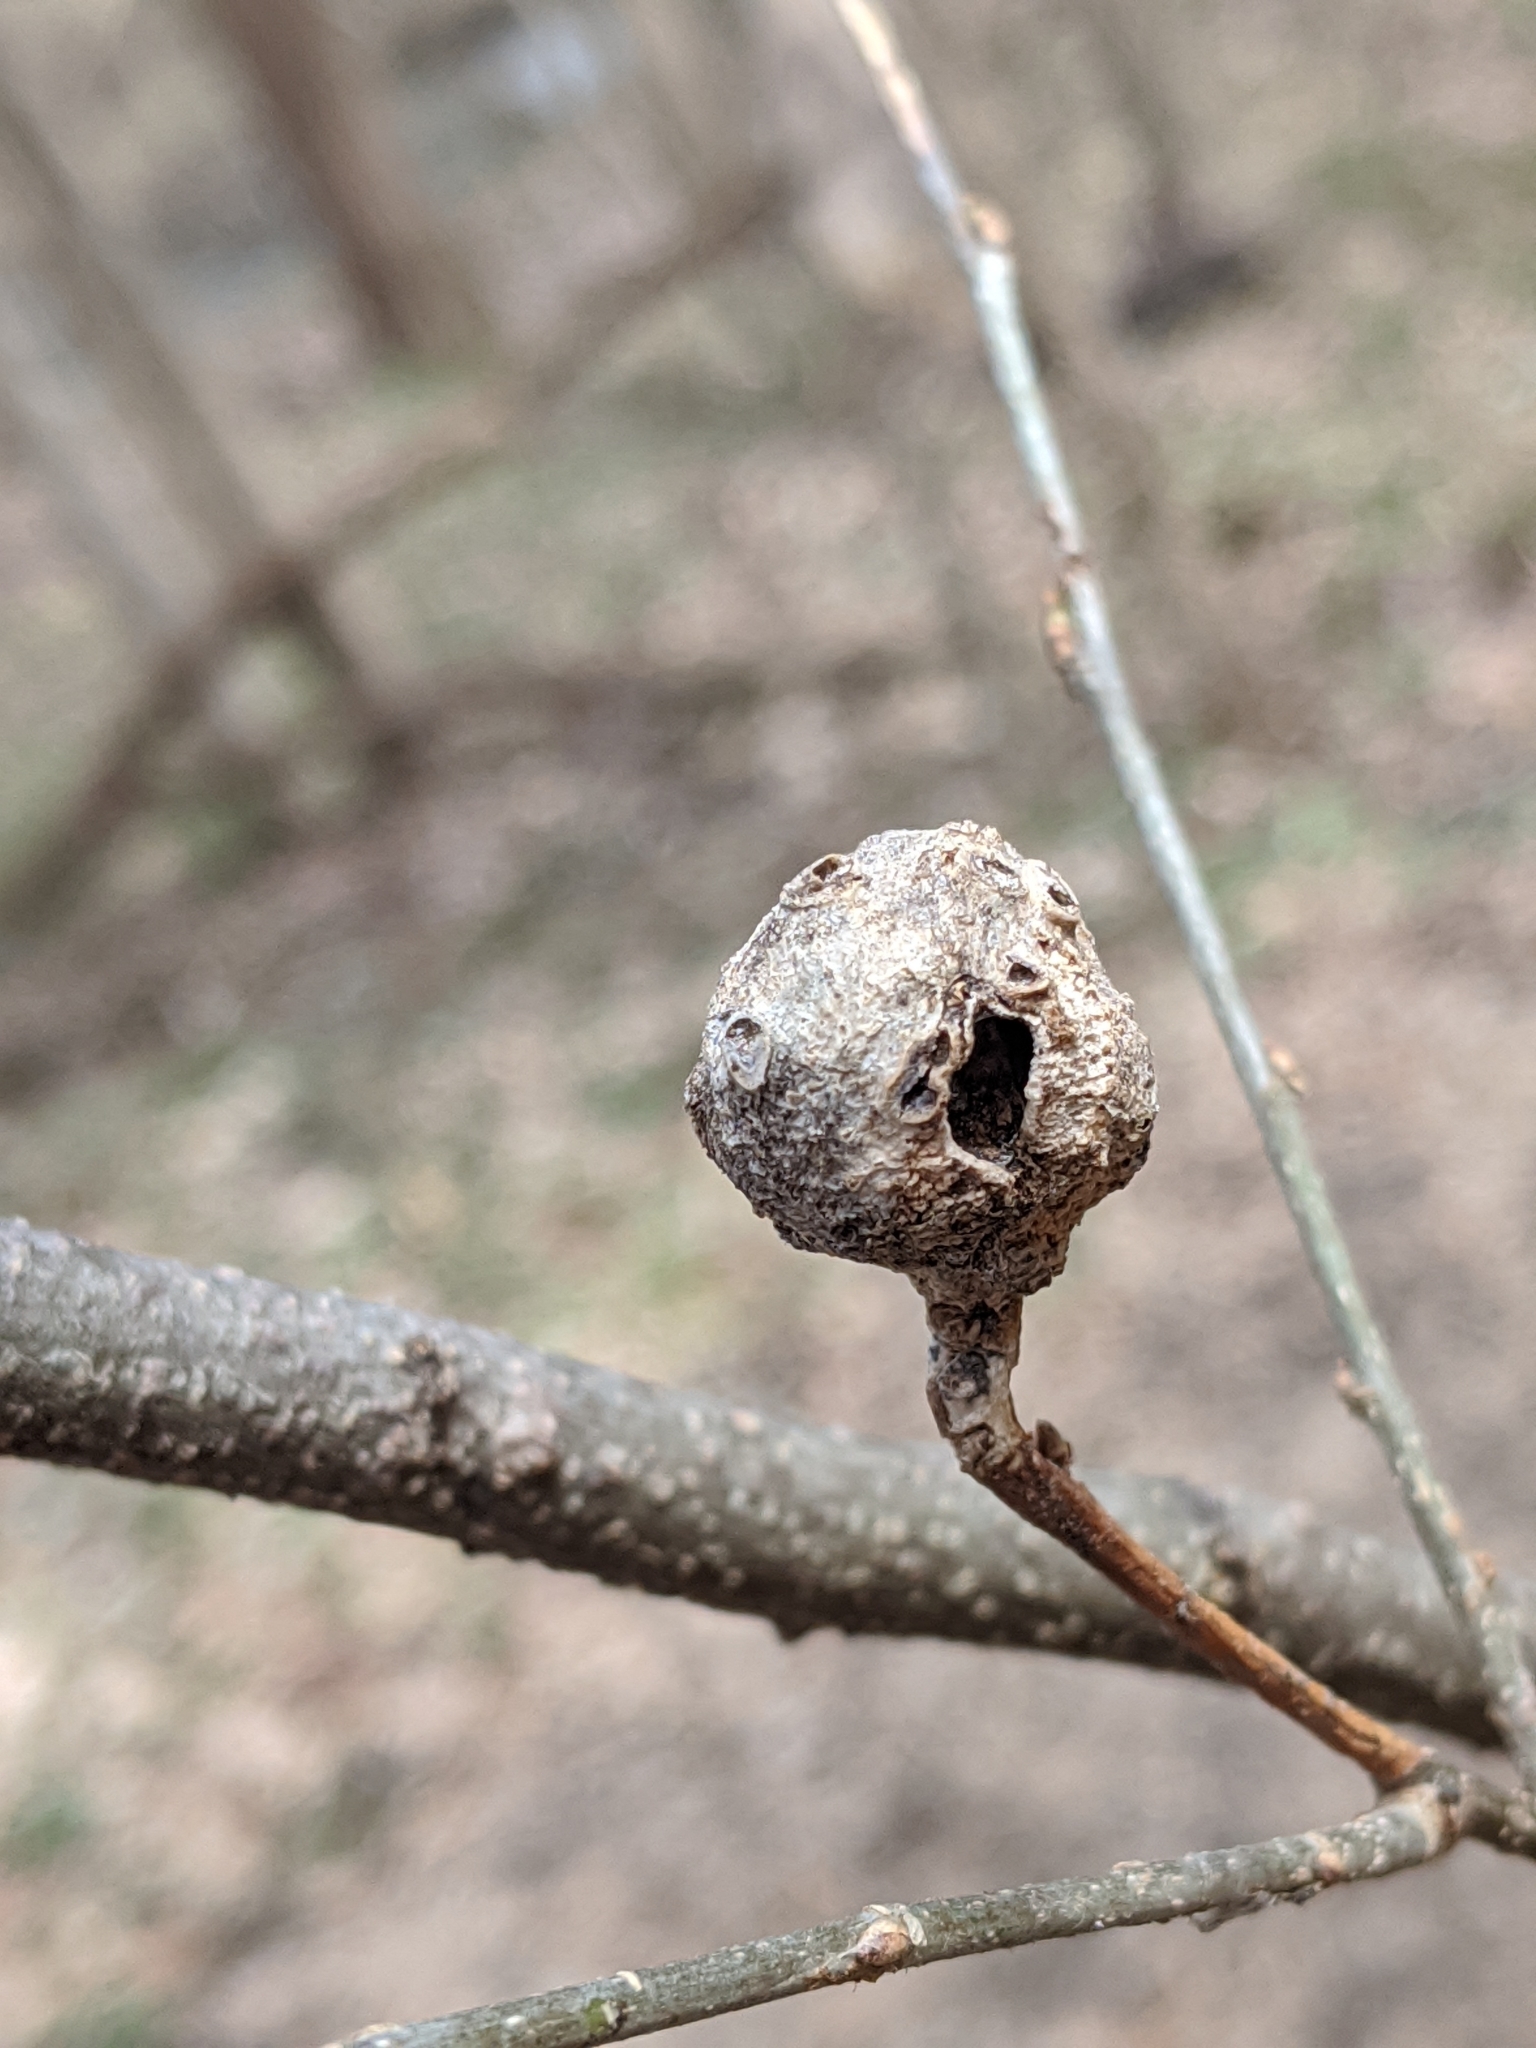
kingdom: Animalia
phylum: Arthropoda
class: Insecta
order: Hemiptera
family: Aphalaridae
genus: Pachypsylla
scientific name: Pachypsylla venusta
